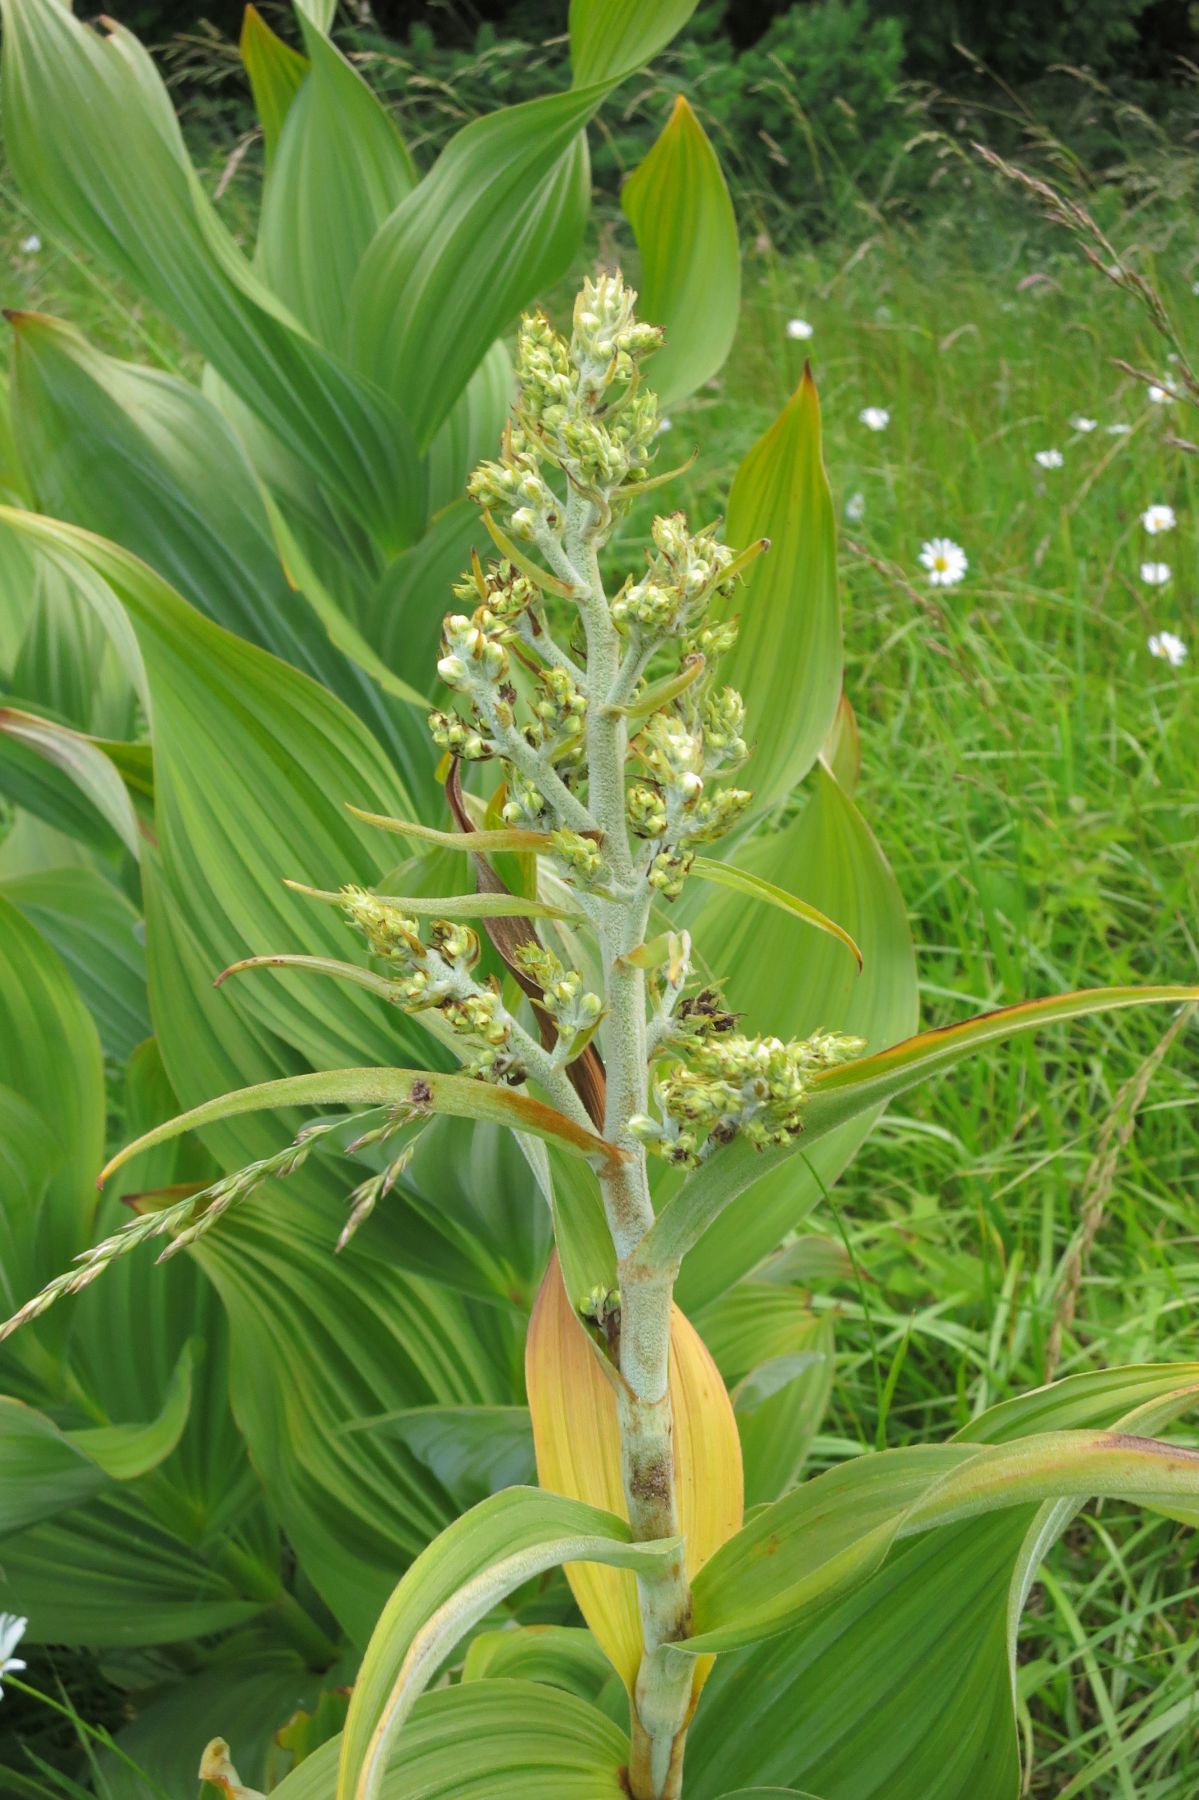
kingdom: Plantae
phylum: Tracheophyta
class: Liliopsida
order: Liliales
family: Melanthiaceae
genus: Veratrum
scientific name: Veratrum insolitum
